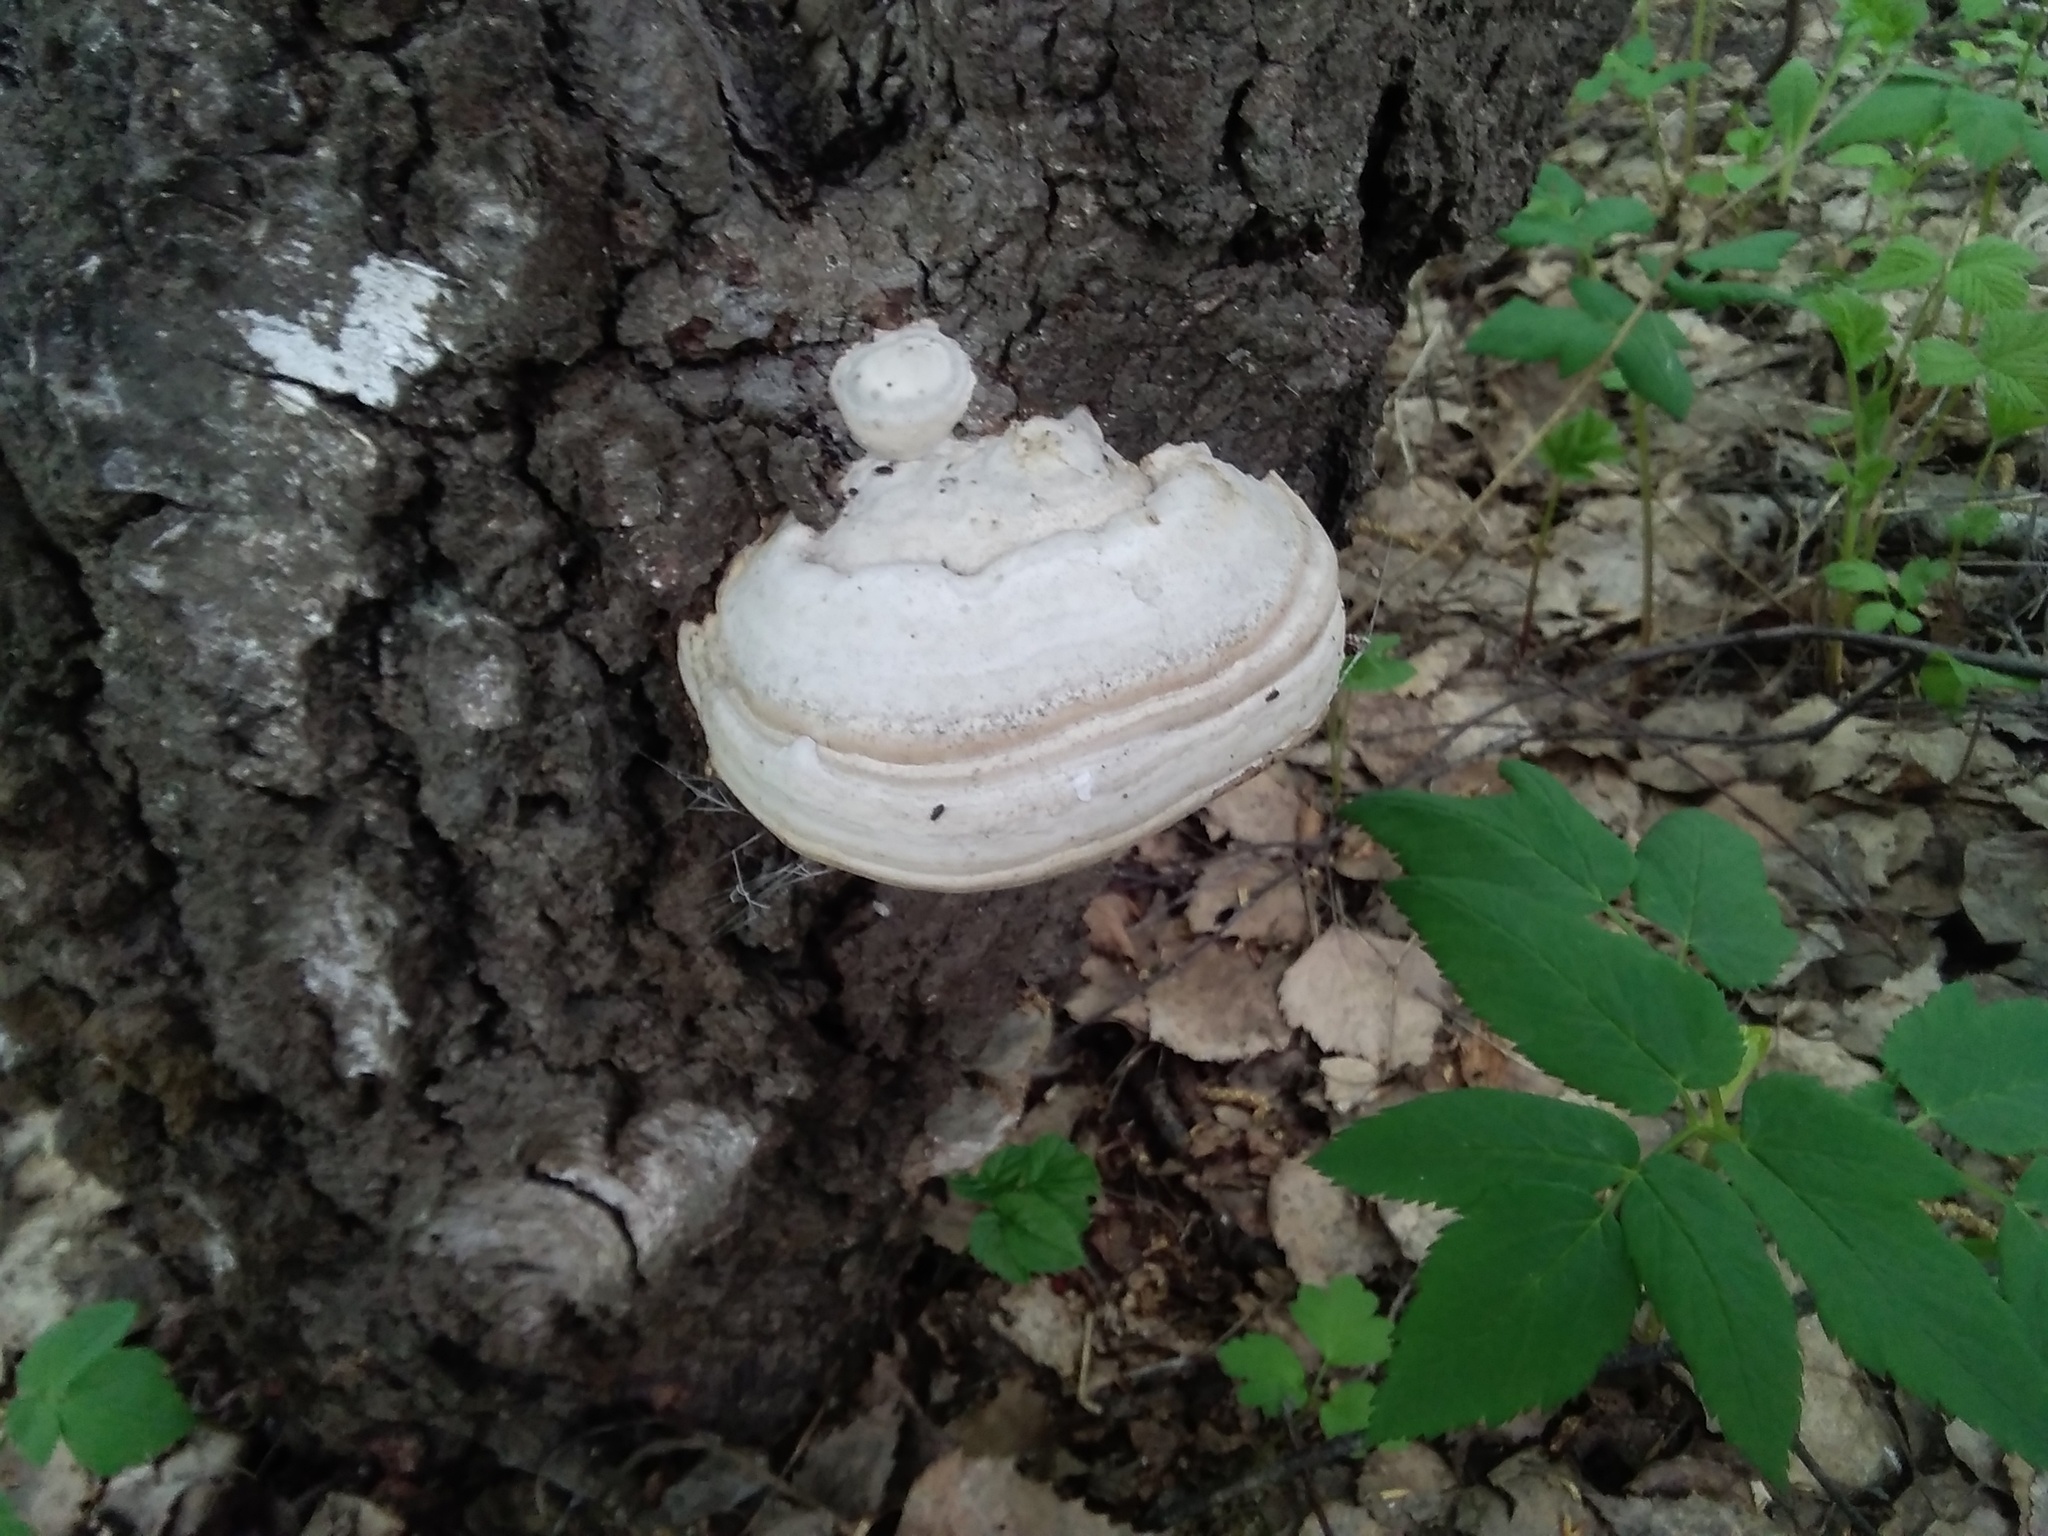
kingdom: Fungi
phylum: Basidiomycota
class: Agaricomycetes
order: Polyporales
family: Polyporaceae
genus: Fomes
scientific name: Fomes fomentarius
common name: Hoof fungus
